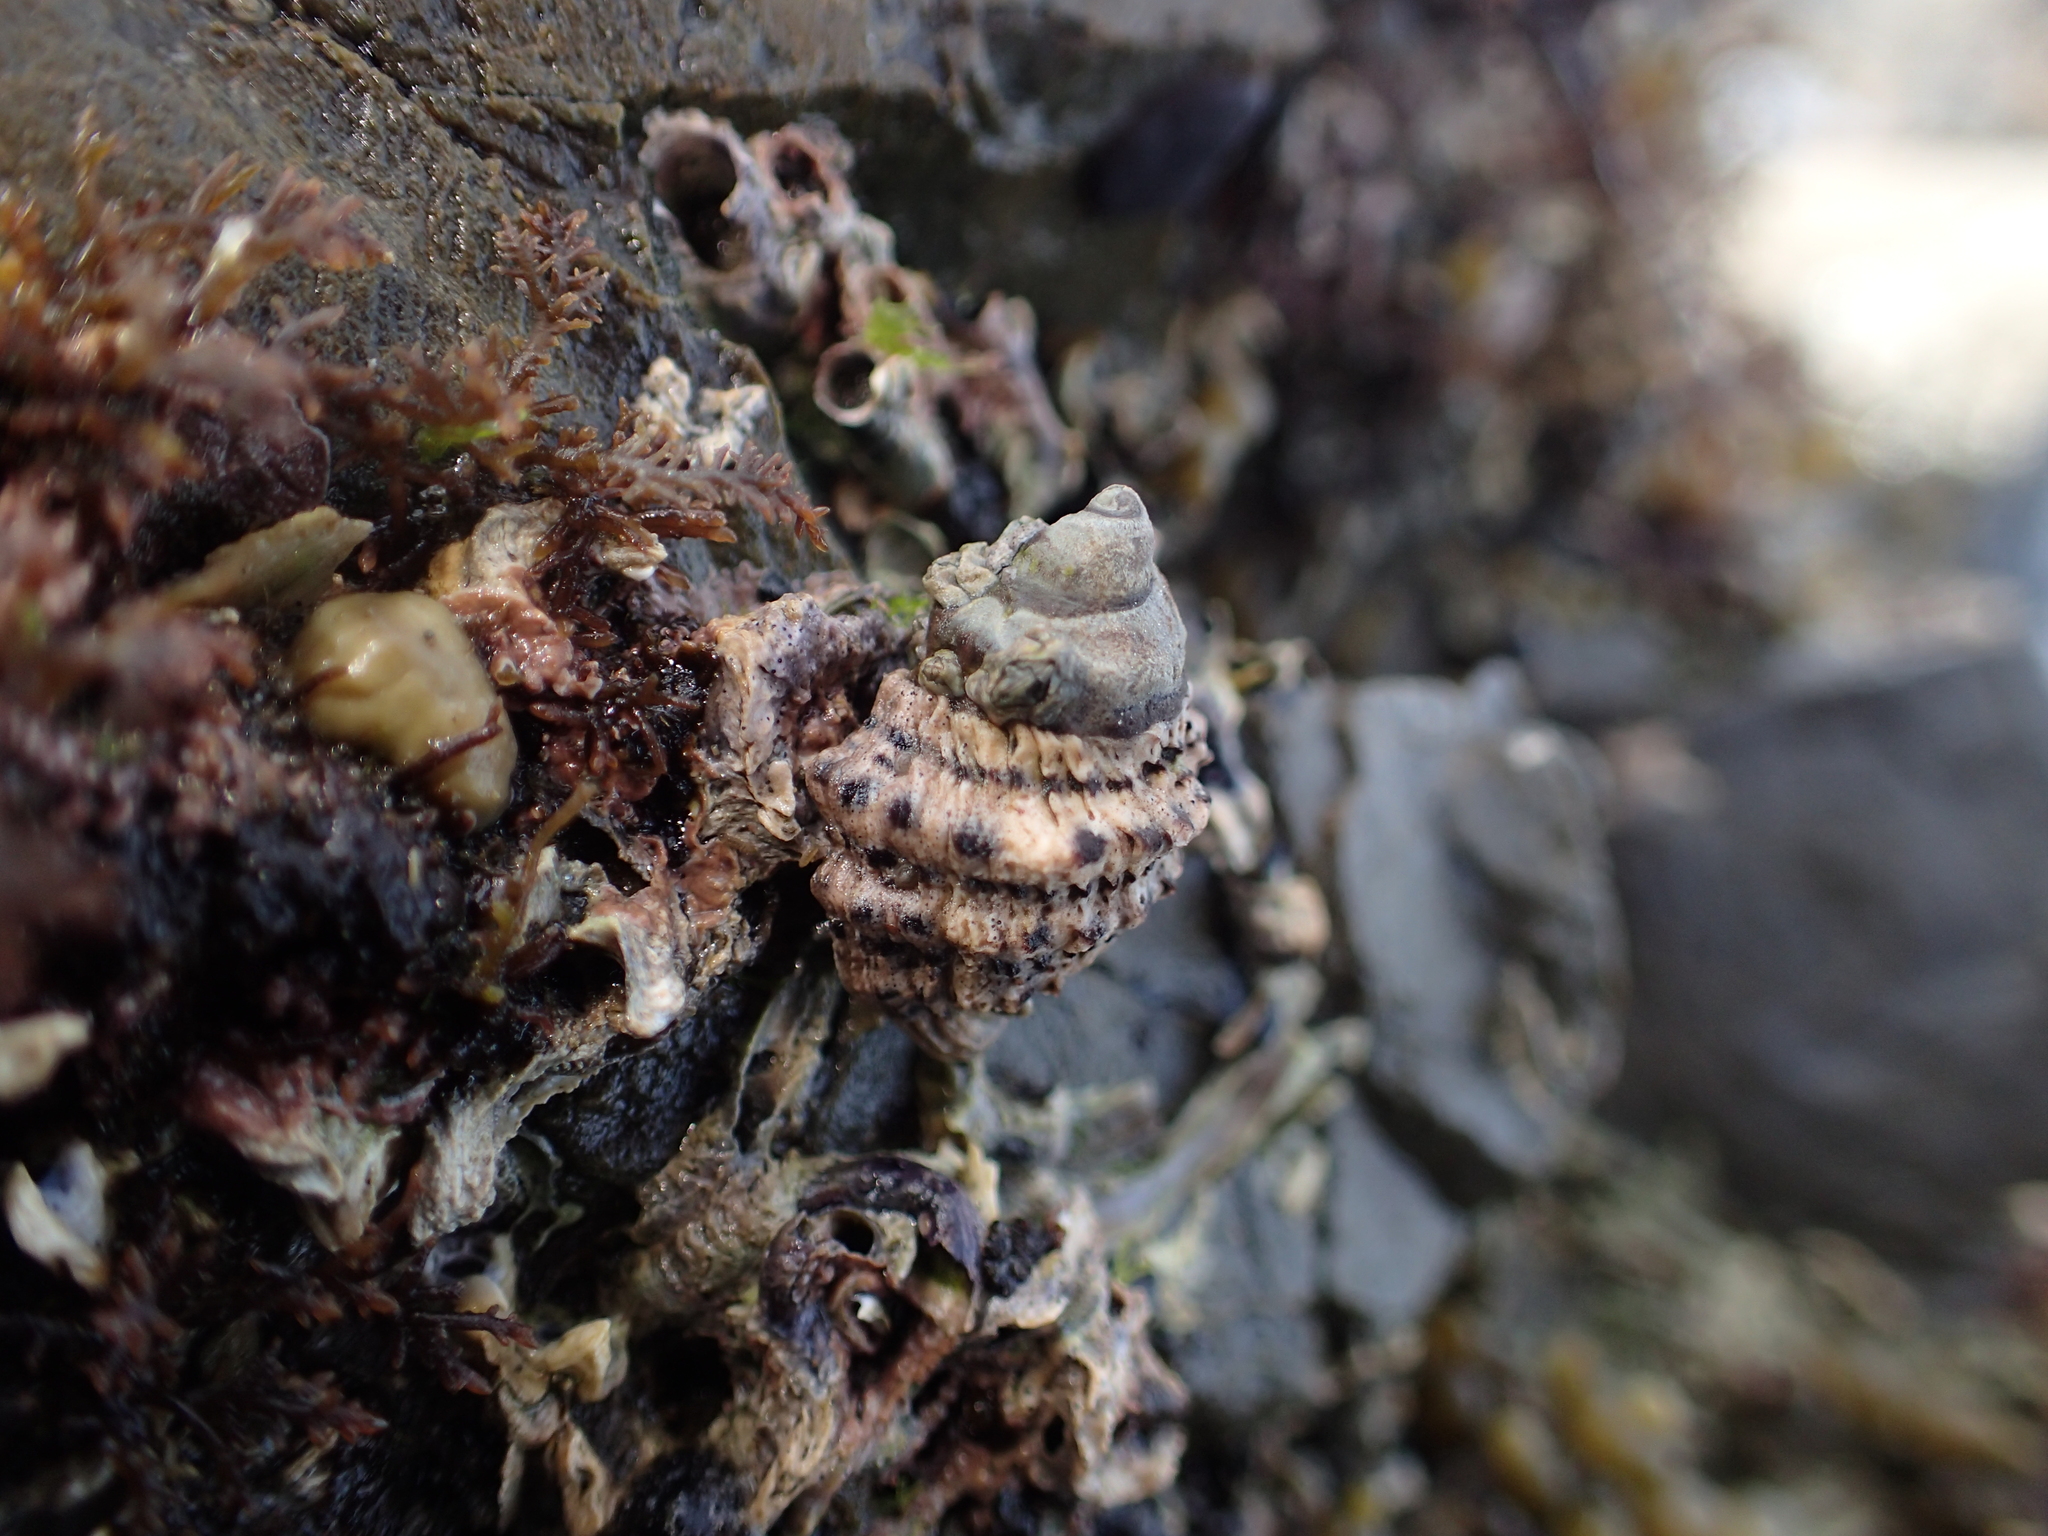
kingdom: Animalia
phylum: Mollusca
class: Gastropoda
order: Neogastropoda
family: Muricidae
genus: Haustrum
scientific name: Haustrum scobina
